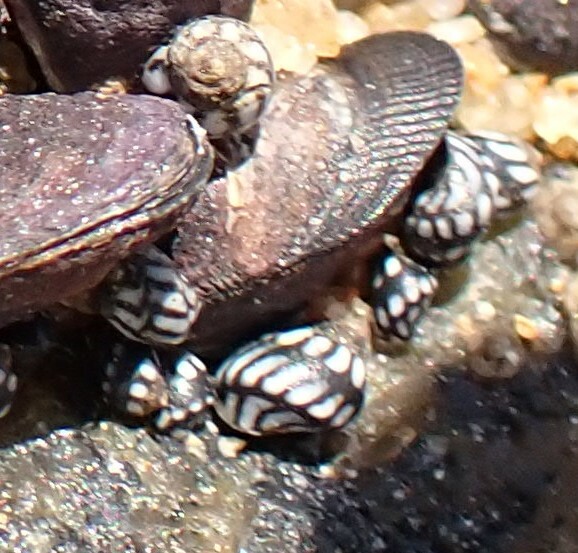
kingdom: Animalia
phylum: Mollusca
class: Gastropoda
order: Littorinimorpha
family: Littorinidae
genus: Echinolittorina
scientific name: Echinolittorina lineolata
